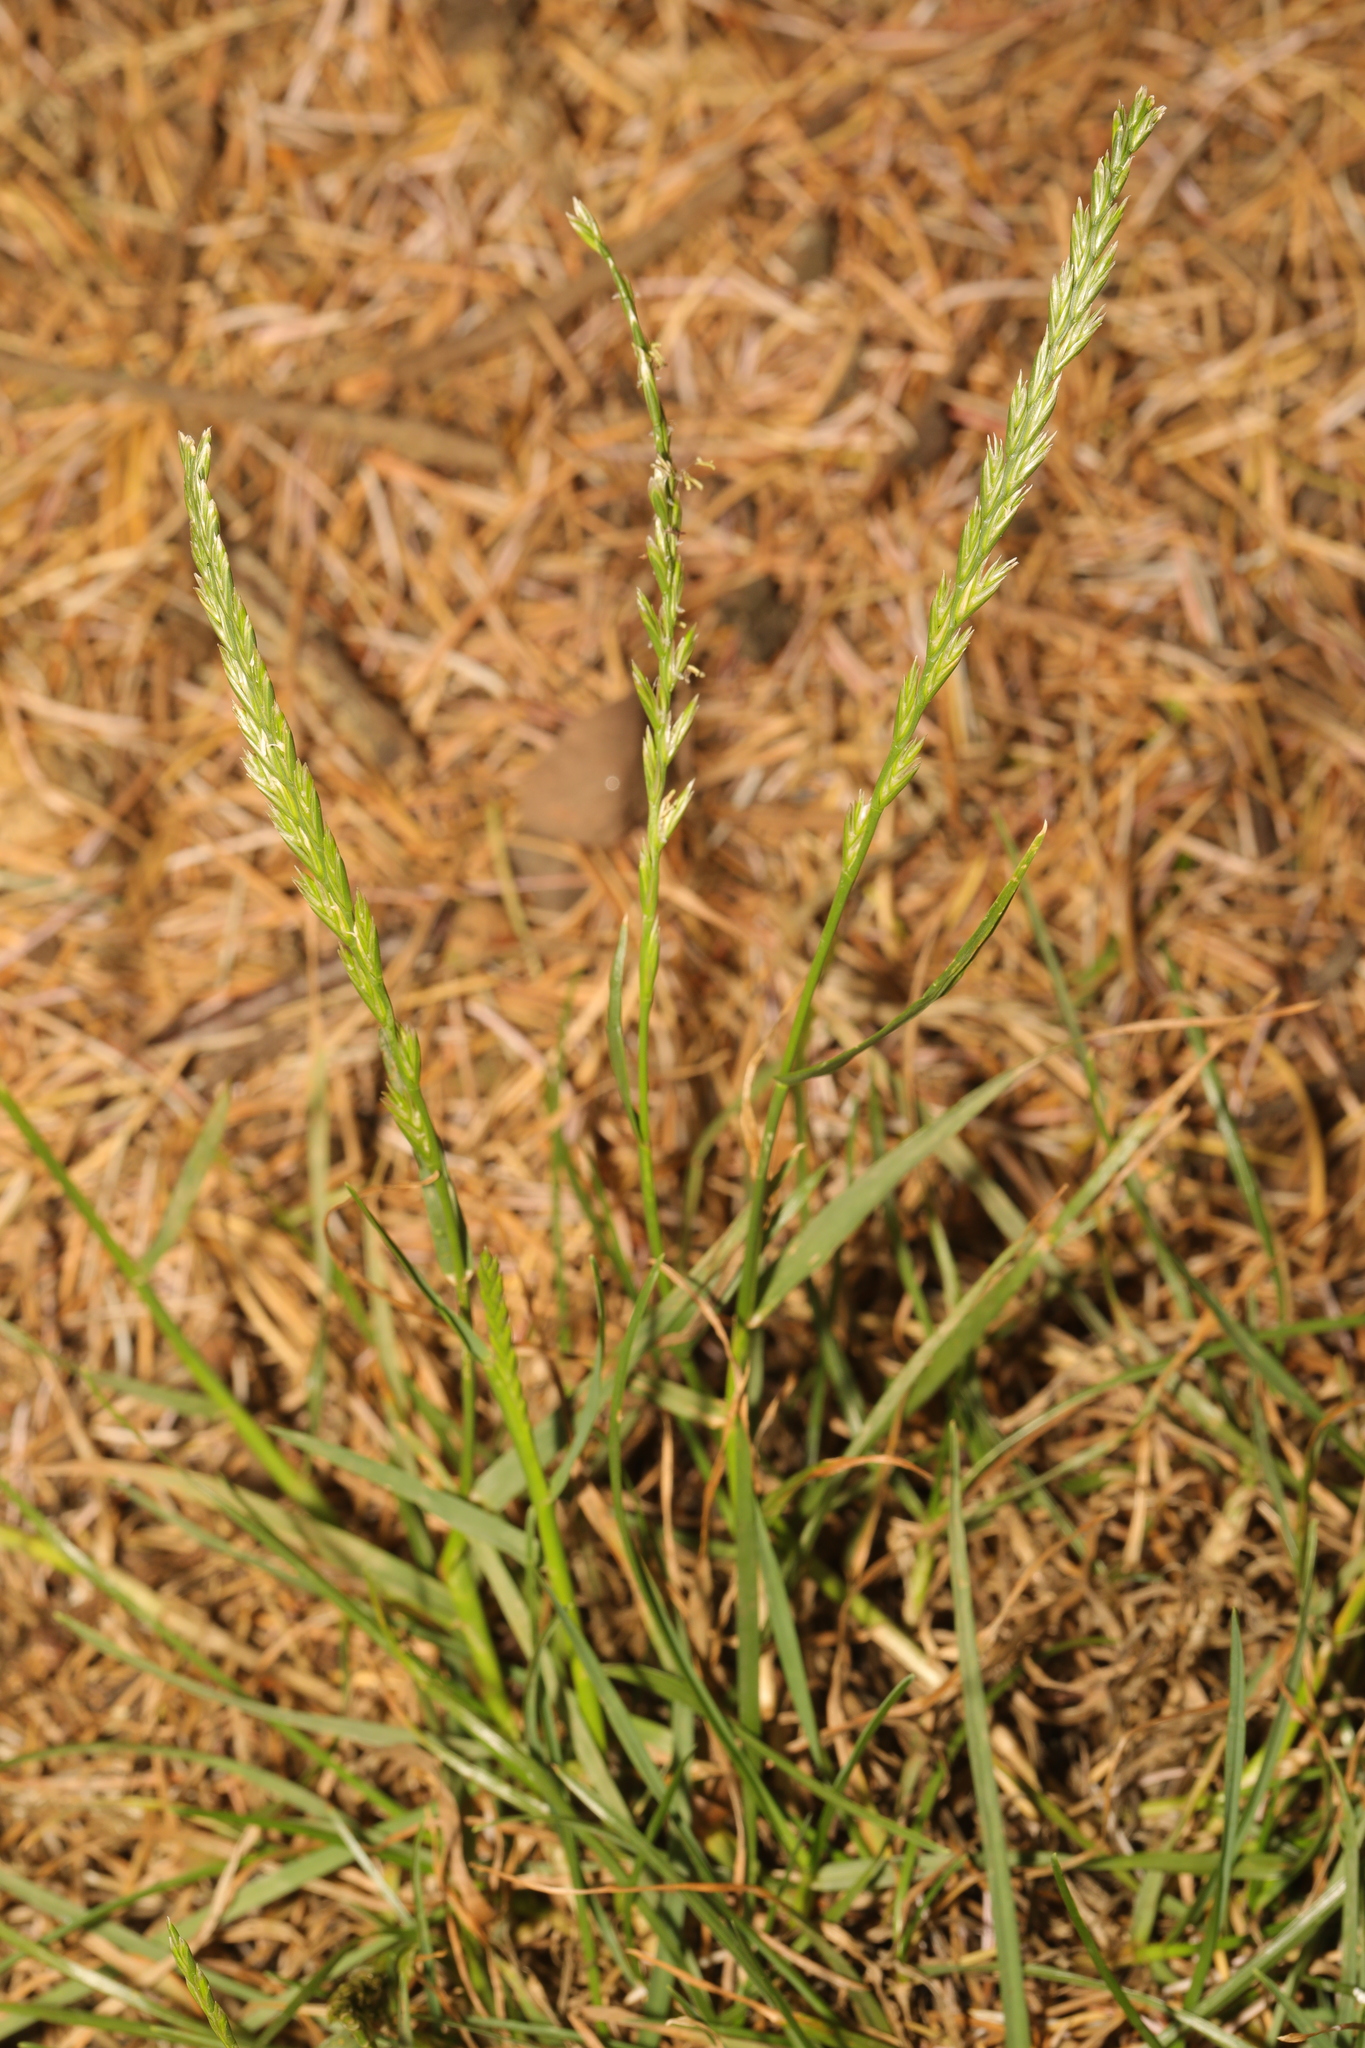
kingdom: Plantae
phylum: Tracheophyta
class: Liliopsida
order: Poales
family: Poaceae
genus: Lolium
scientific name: Lolium perenne
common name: Perennial ryegrass
